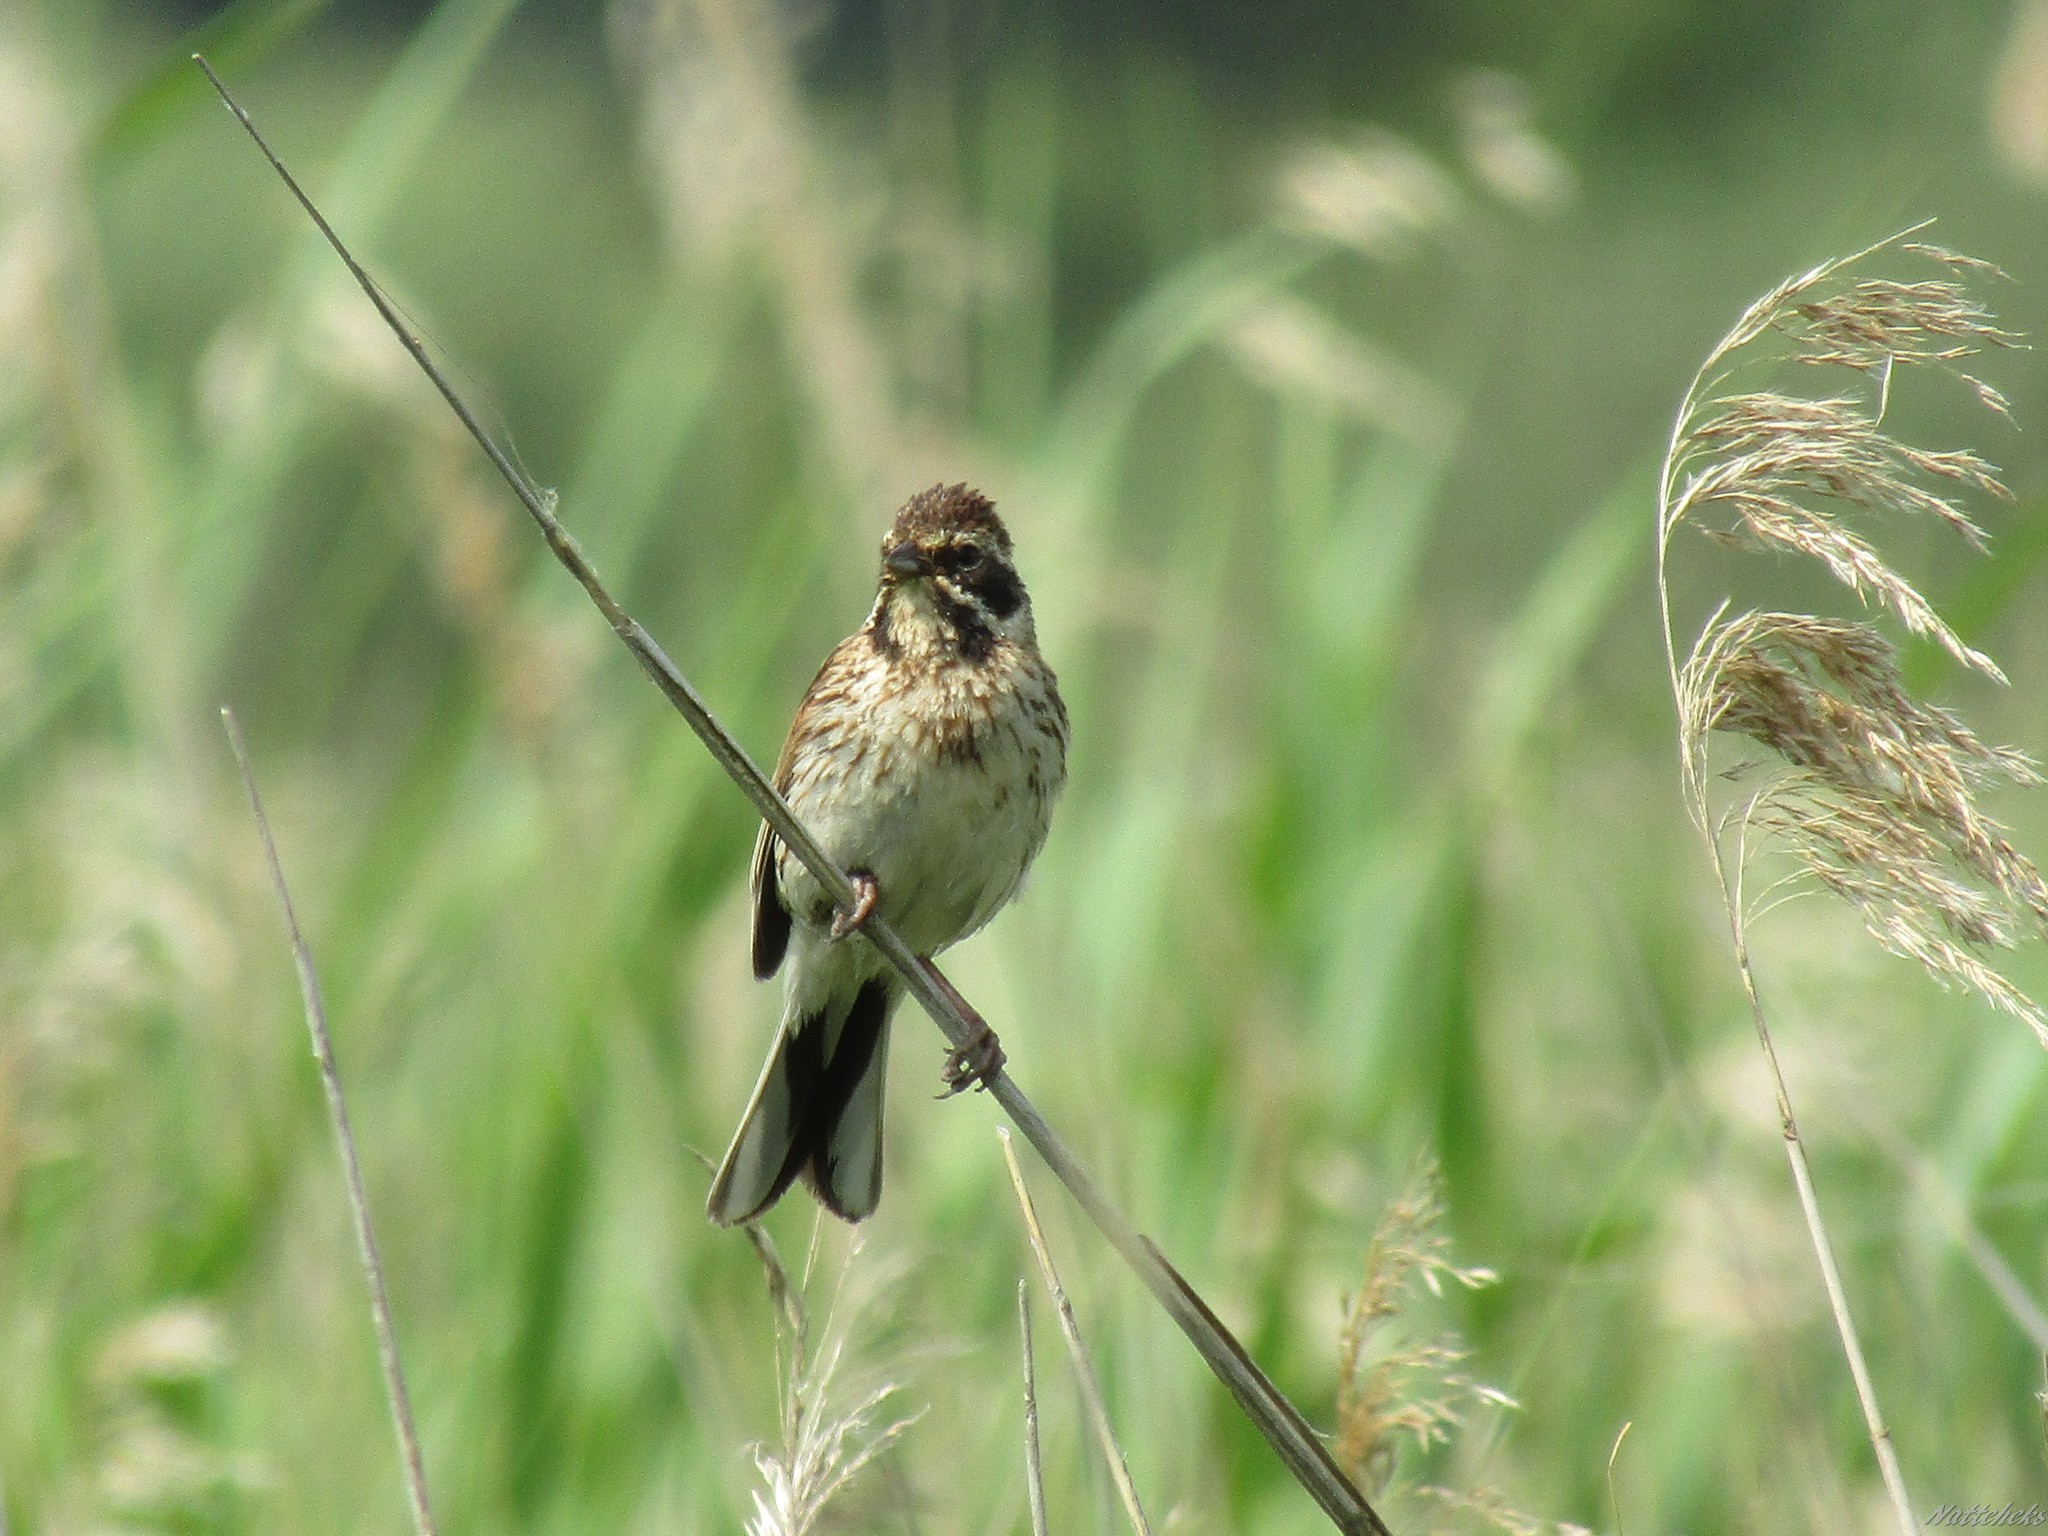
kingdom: Animalia
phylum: Chordata
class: Aves
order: Passeriformes
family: Emberizidae
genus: Emberiza
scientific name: Emberiza schoeniclus
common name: Reed bunting
